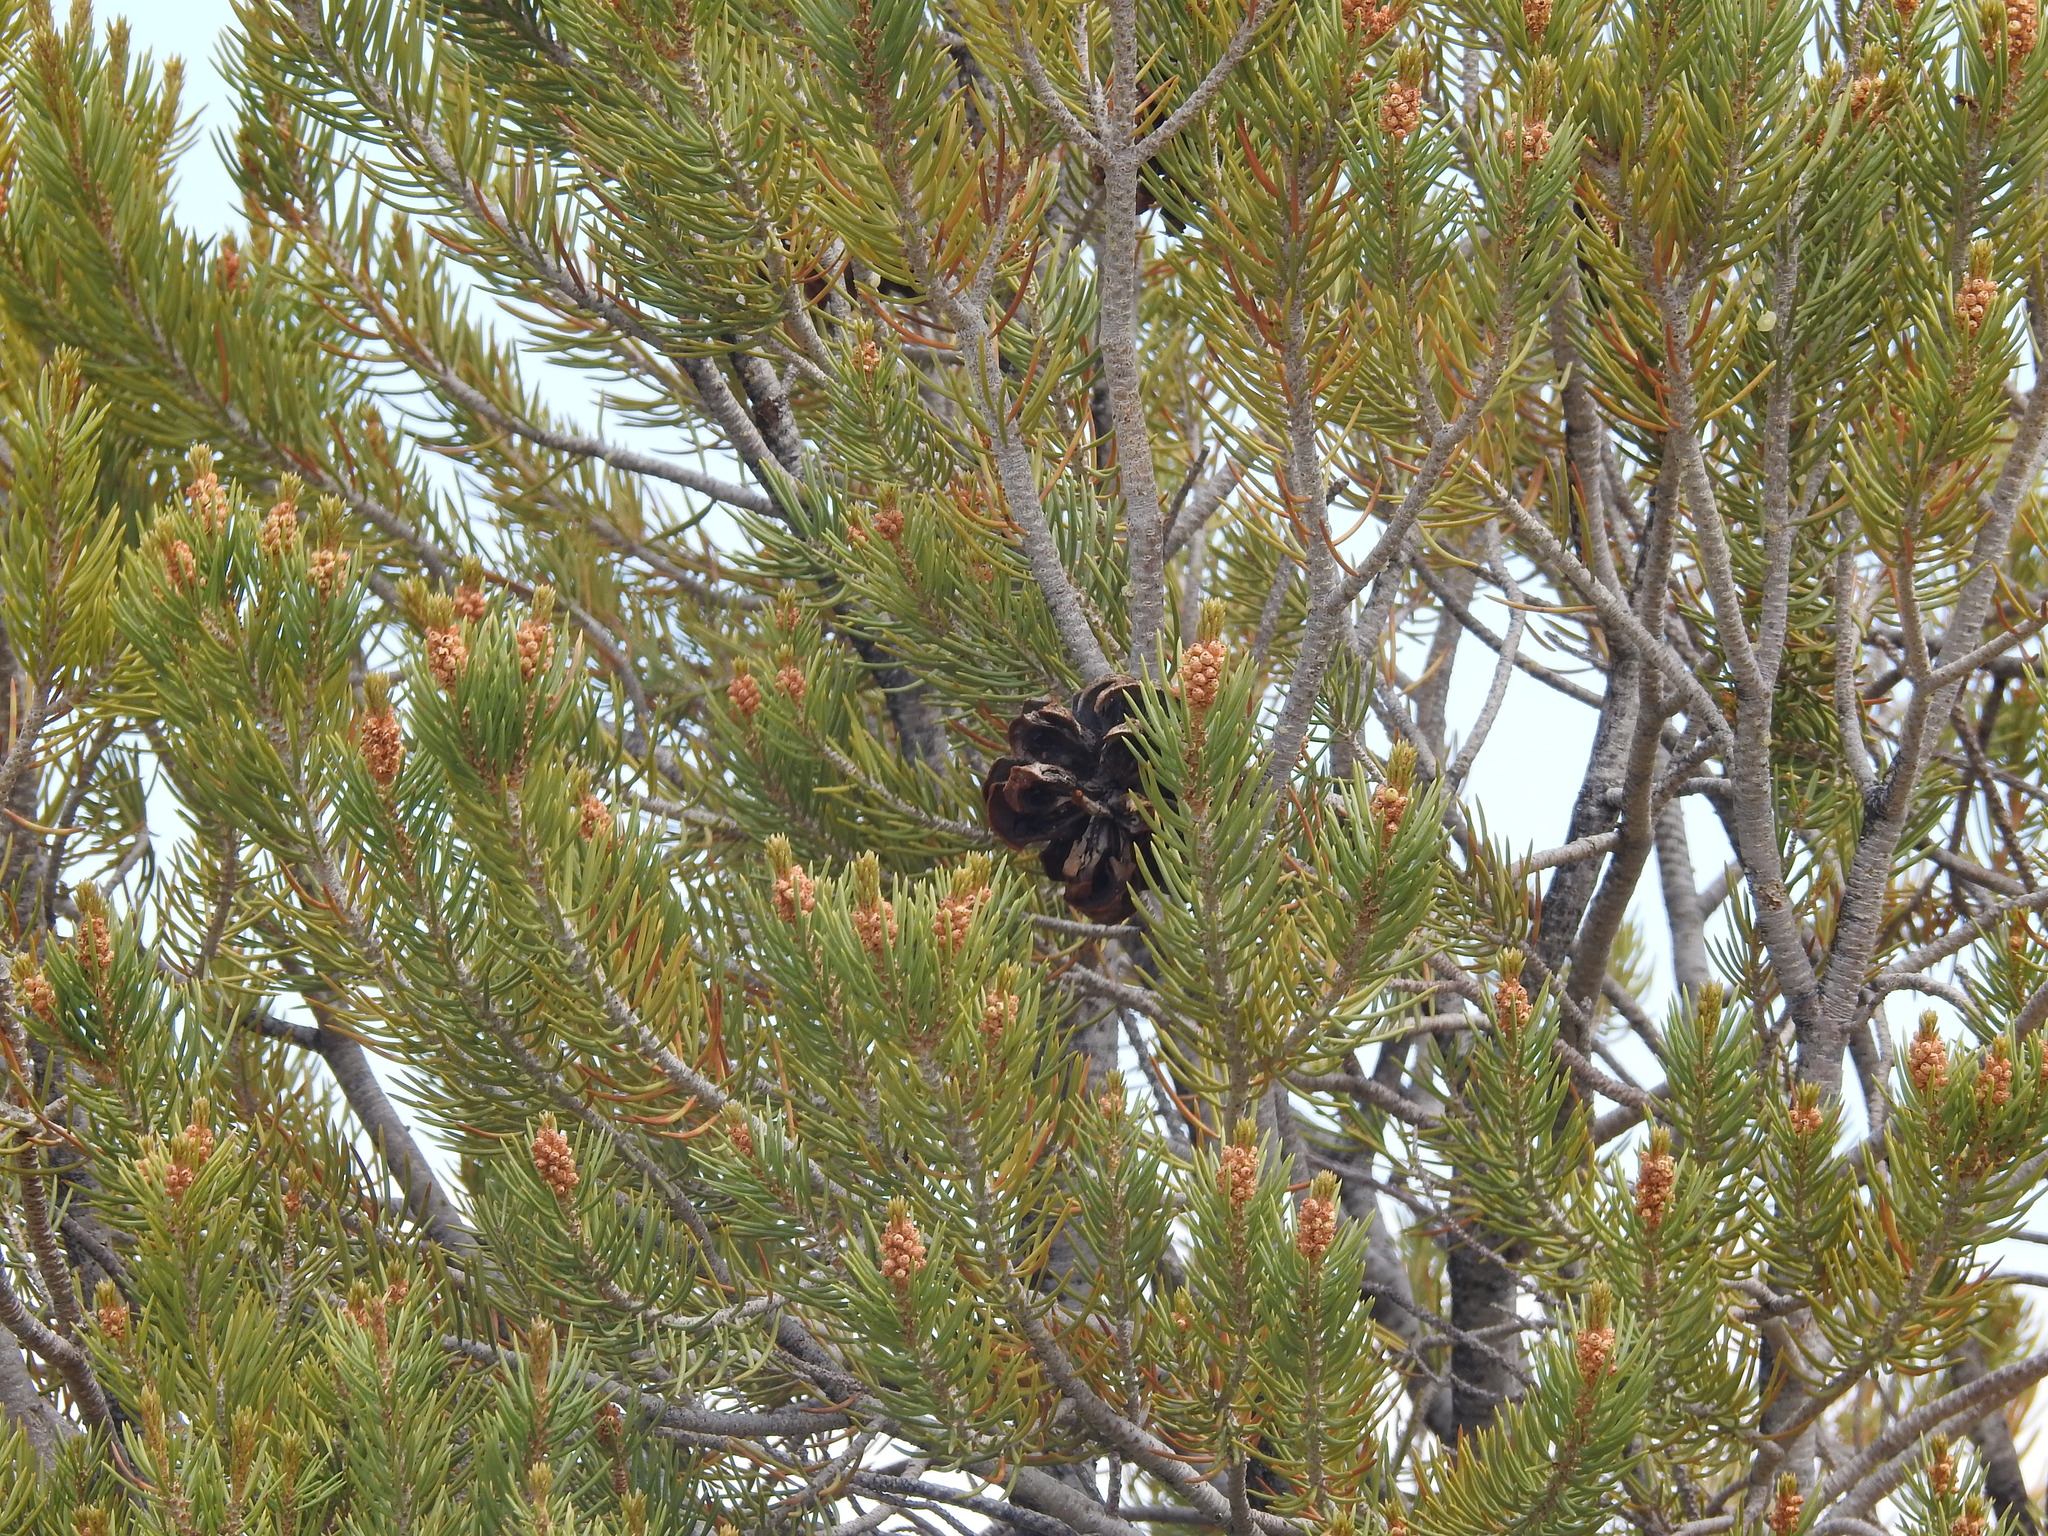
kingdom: Plantae
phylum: Tracheophyta
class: Pinopsida
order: Pinales
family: Pinaceae
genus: Pinus
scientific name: Pinus monophylla
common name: One-leaved nut pine
